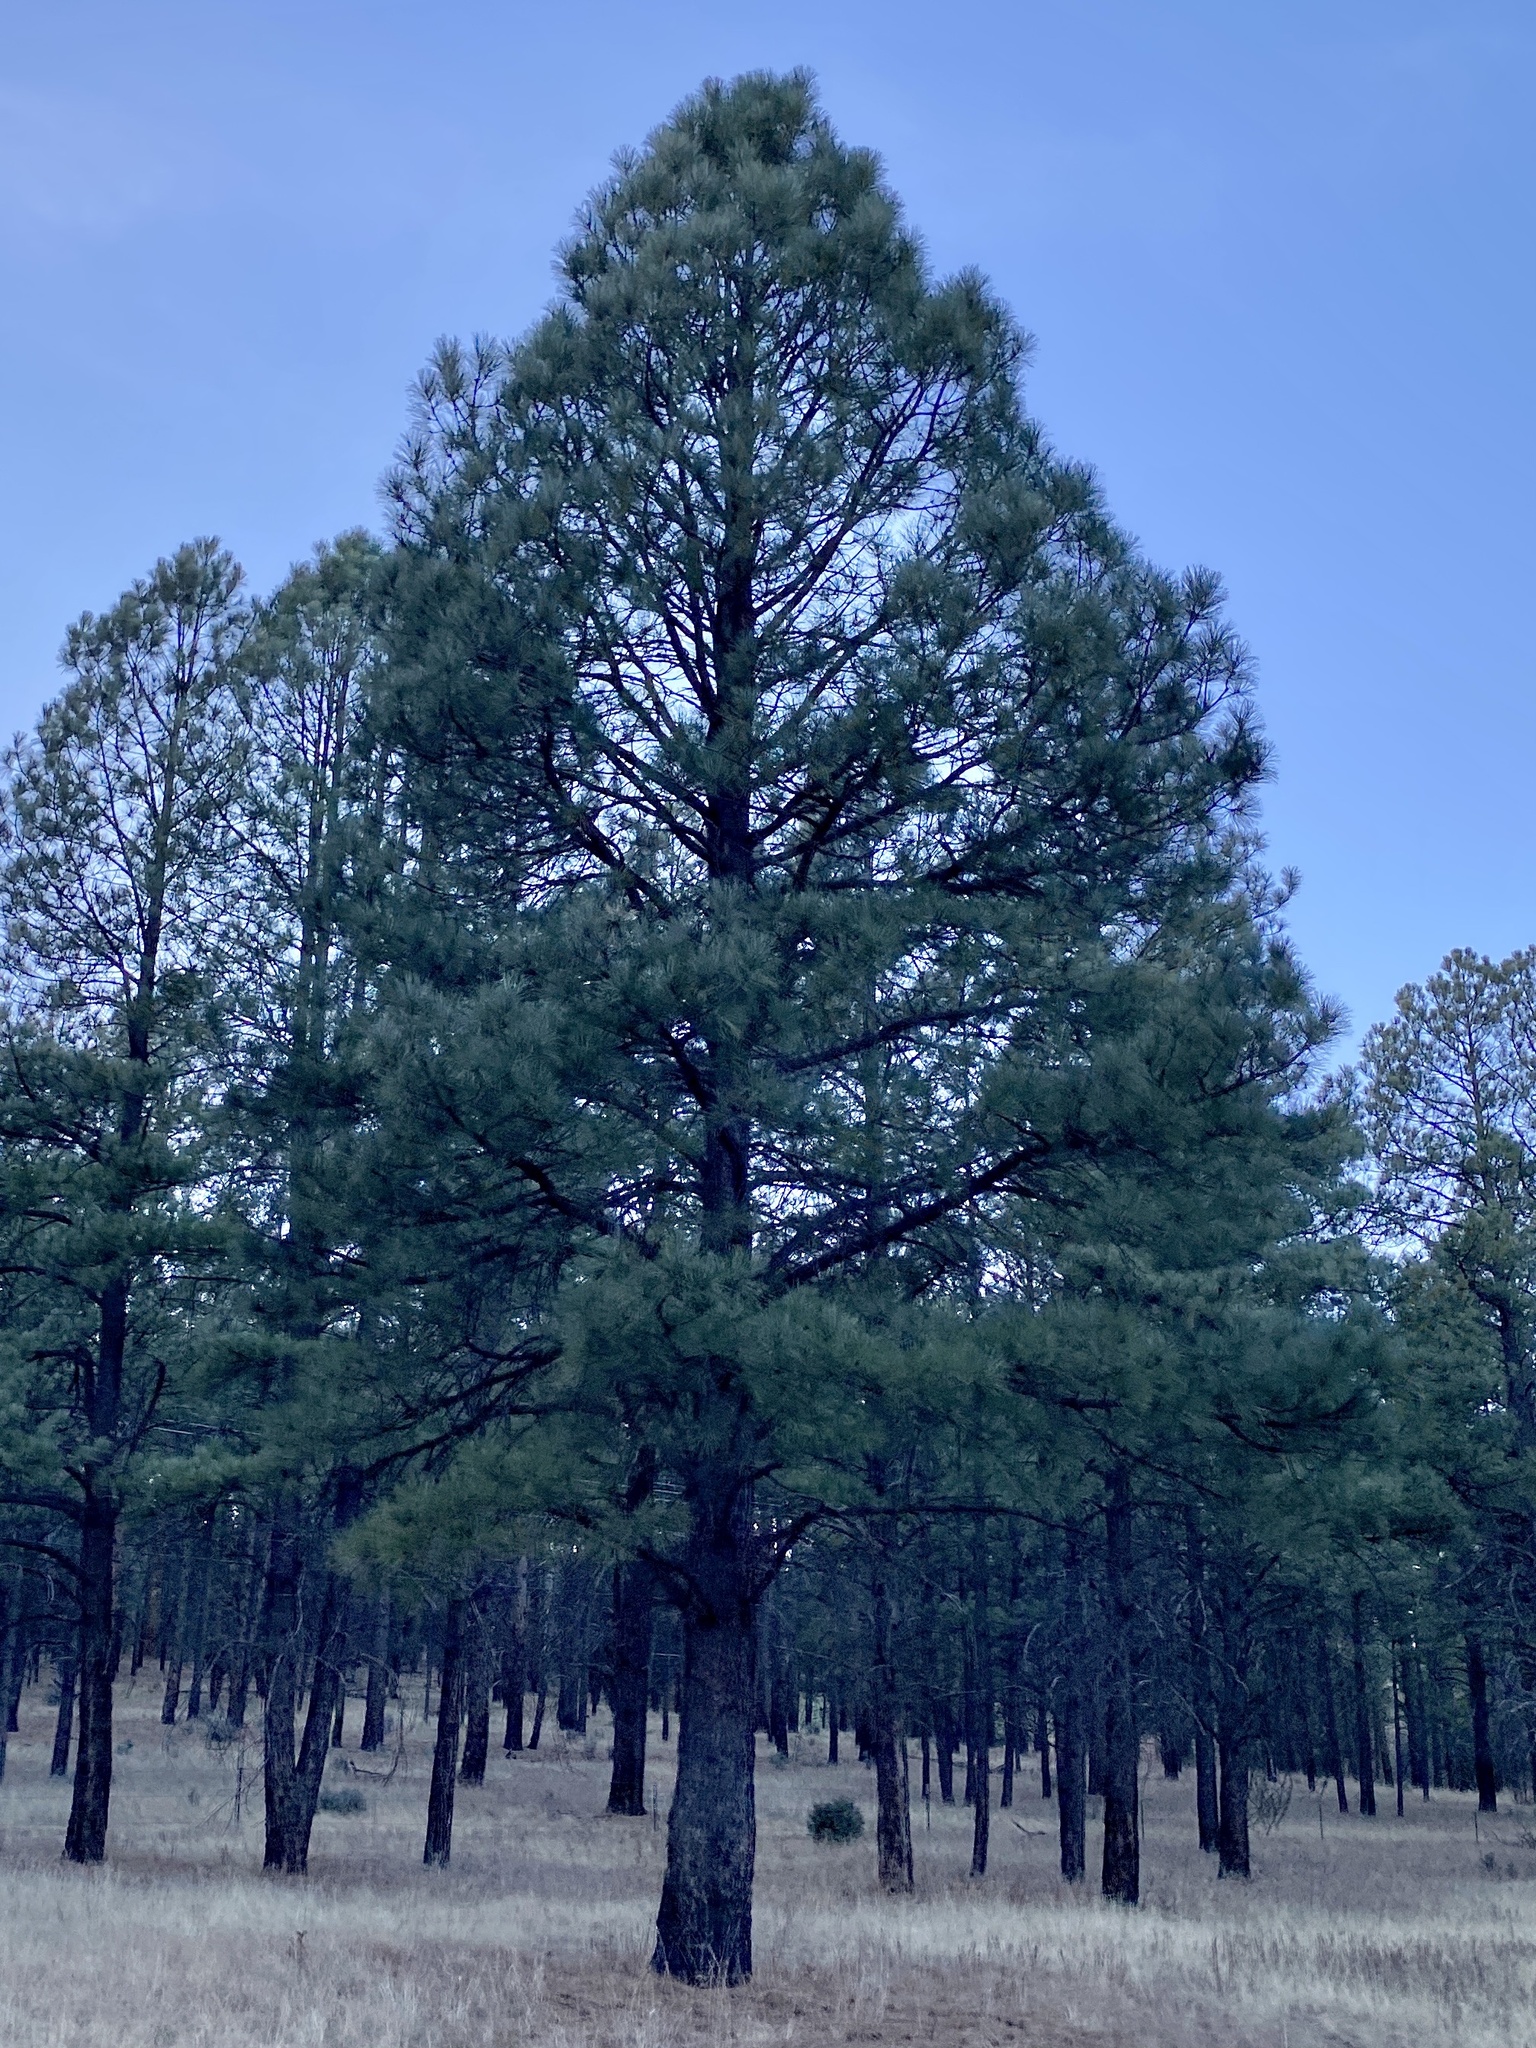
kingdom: Plantae
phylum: Tracheophyta
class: Pinopsida
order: Pinales
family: Pinaceae
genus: Pinus
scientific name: Pinus ponderosa
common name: Western yellow-pine
